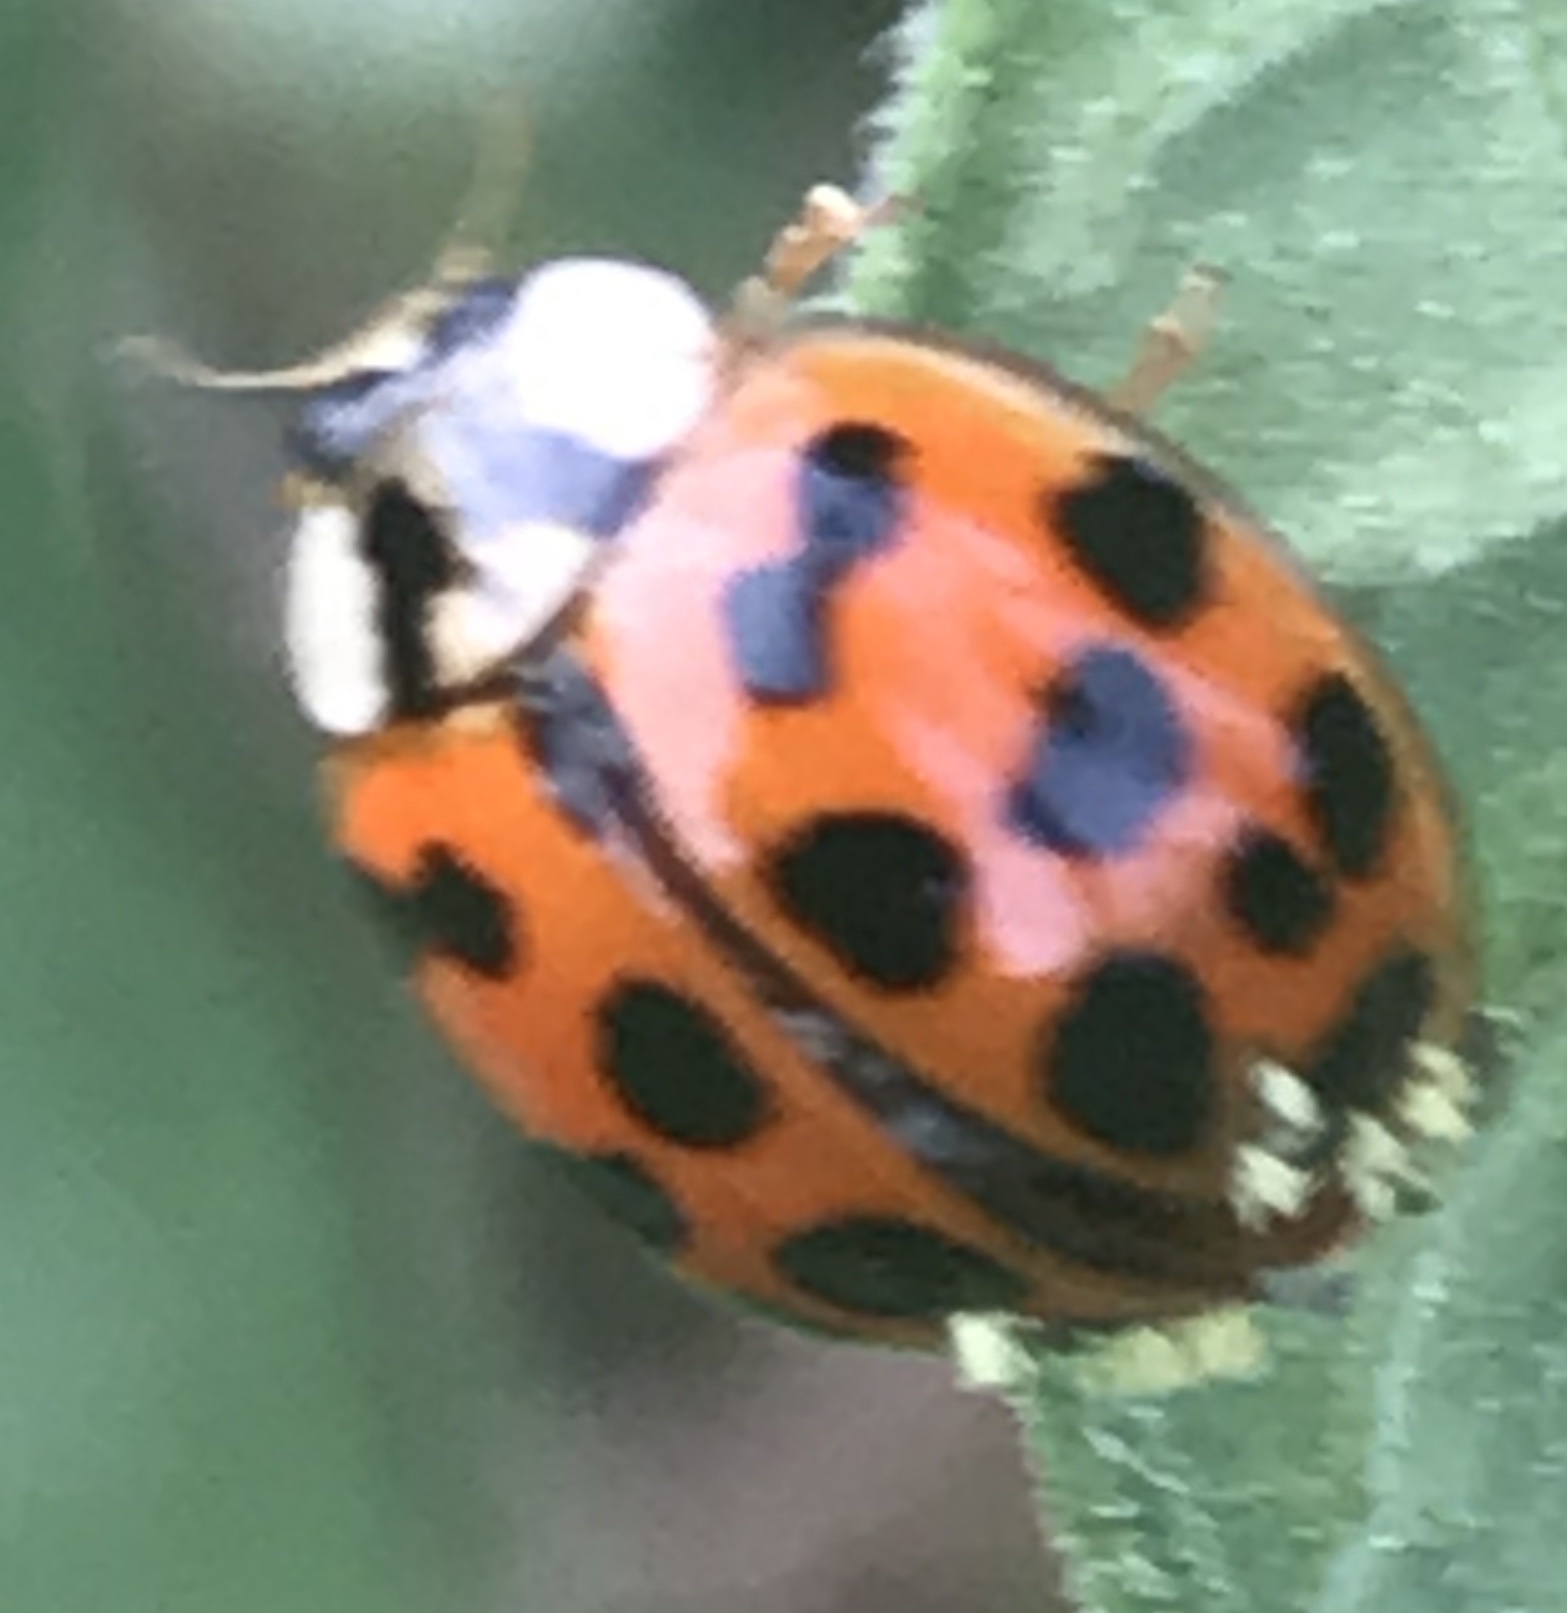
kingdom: Fungi
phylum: Ascomycota
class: Laboulbeniomycetes
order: Laboulbeniales
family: Laboulbeniaceae
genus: Hesperomyces
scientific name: Hesperomyces harmoniae
